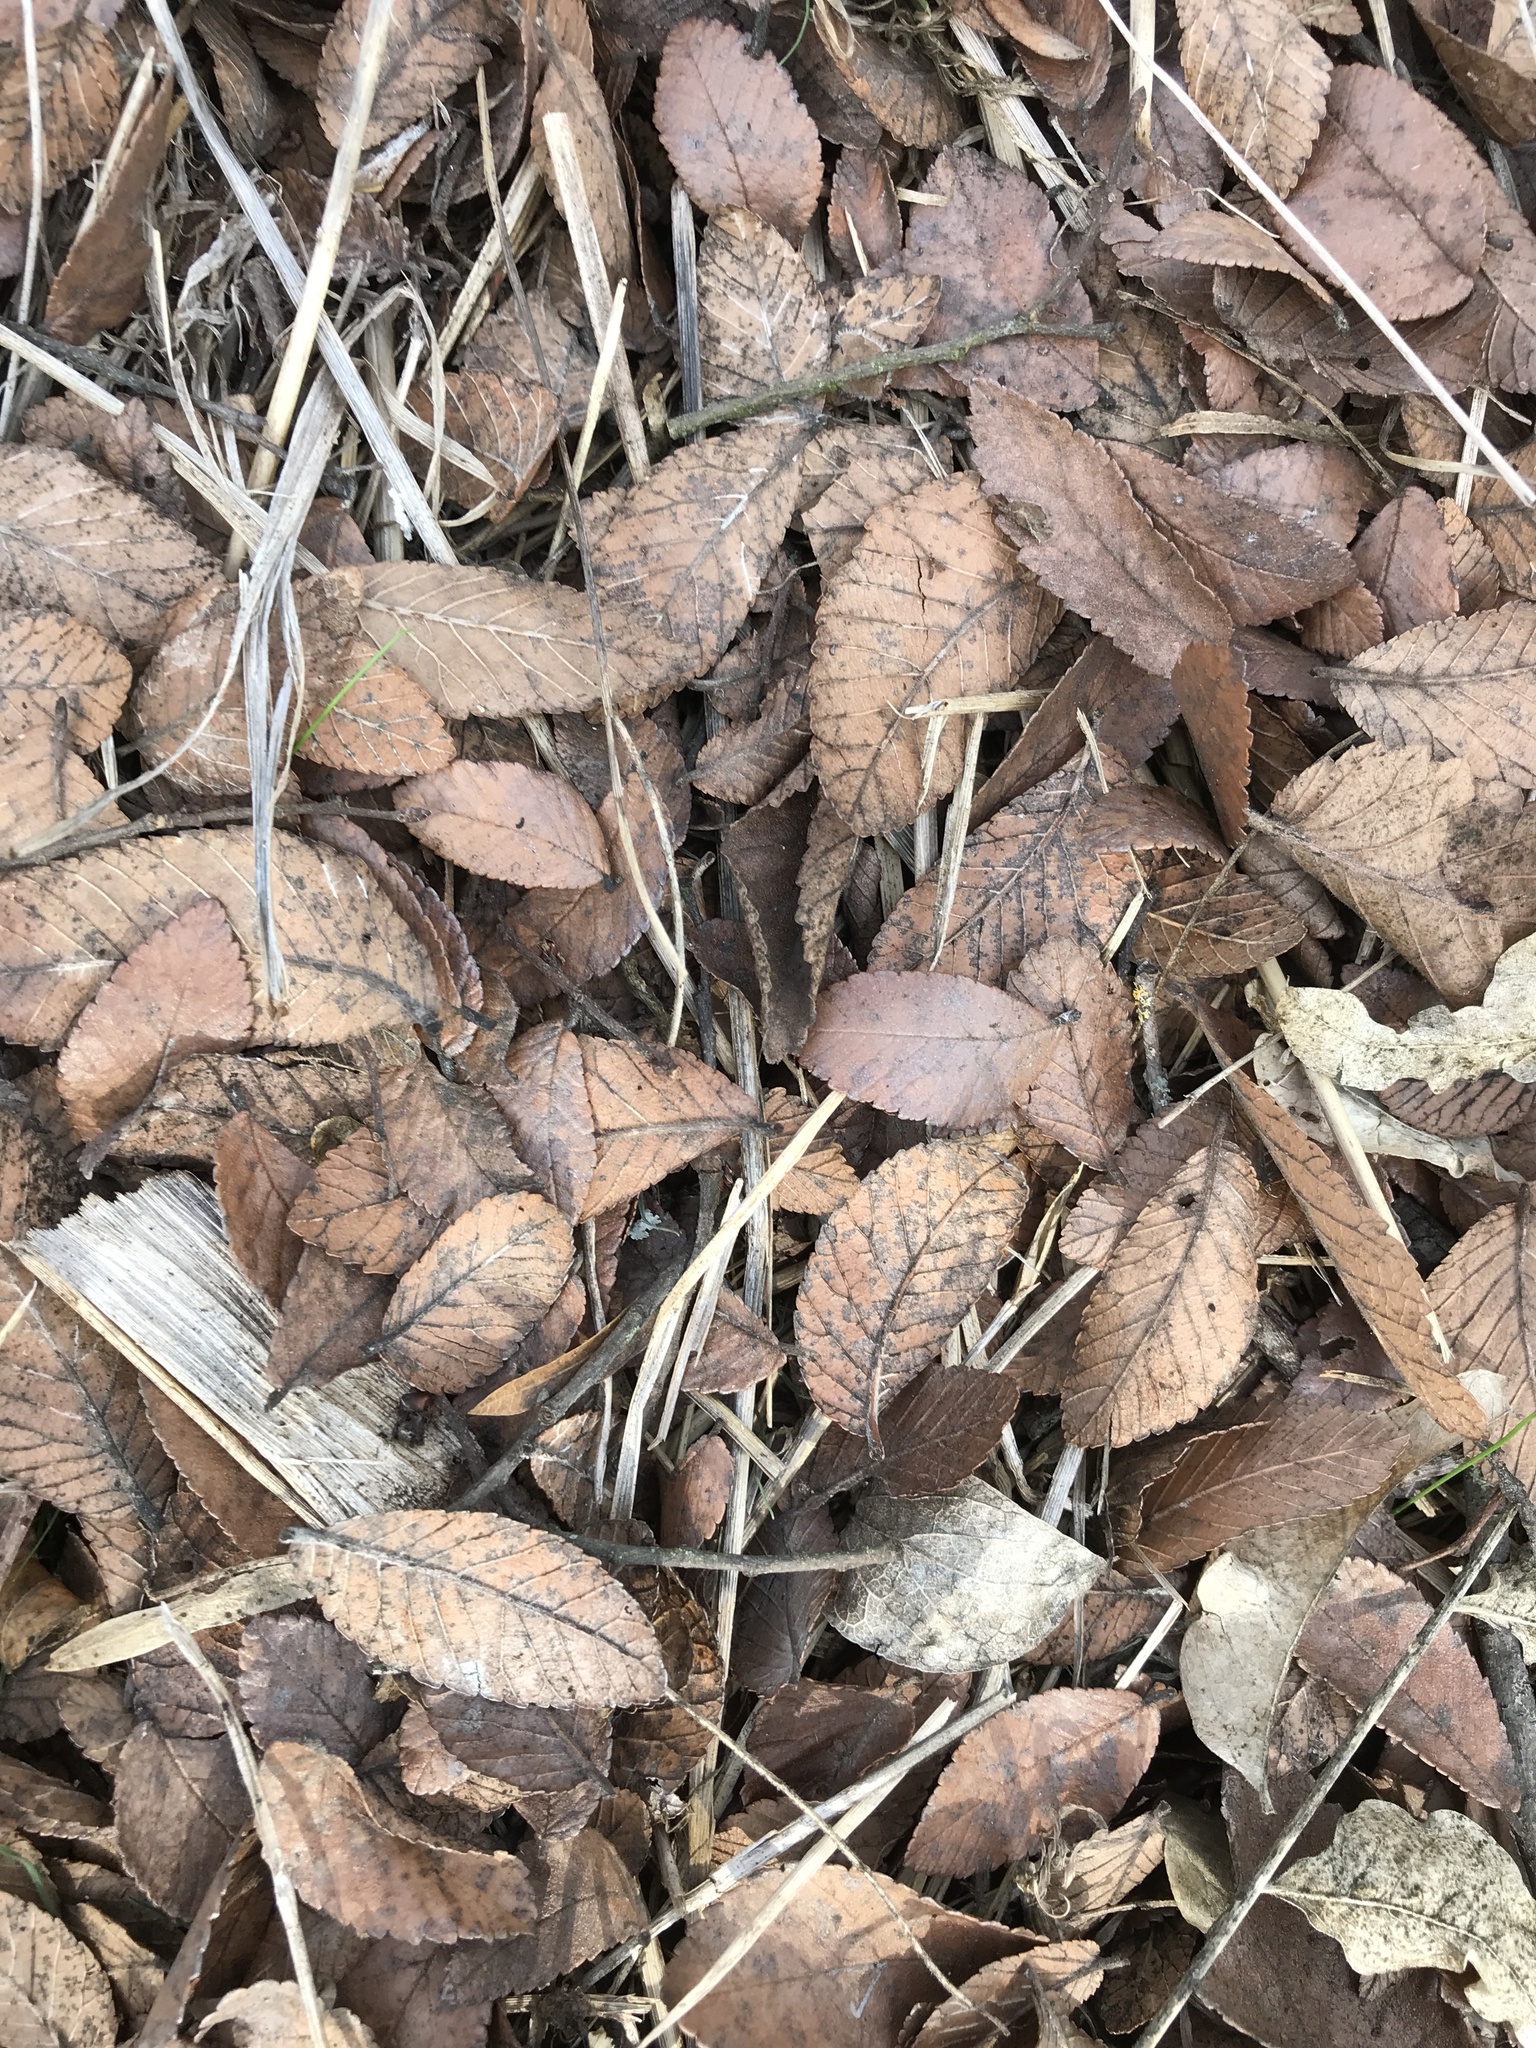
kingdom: Plantae
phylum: Tracheophyta
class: Magnoliopsida
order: Rosales
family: Ulmaceae
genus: Ulmus
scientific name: Ulmus crassifolia
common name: Basket elm
